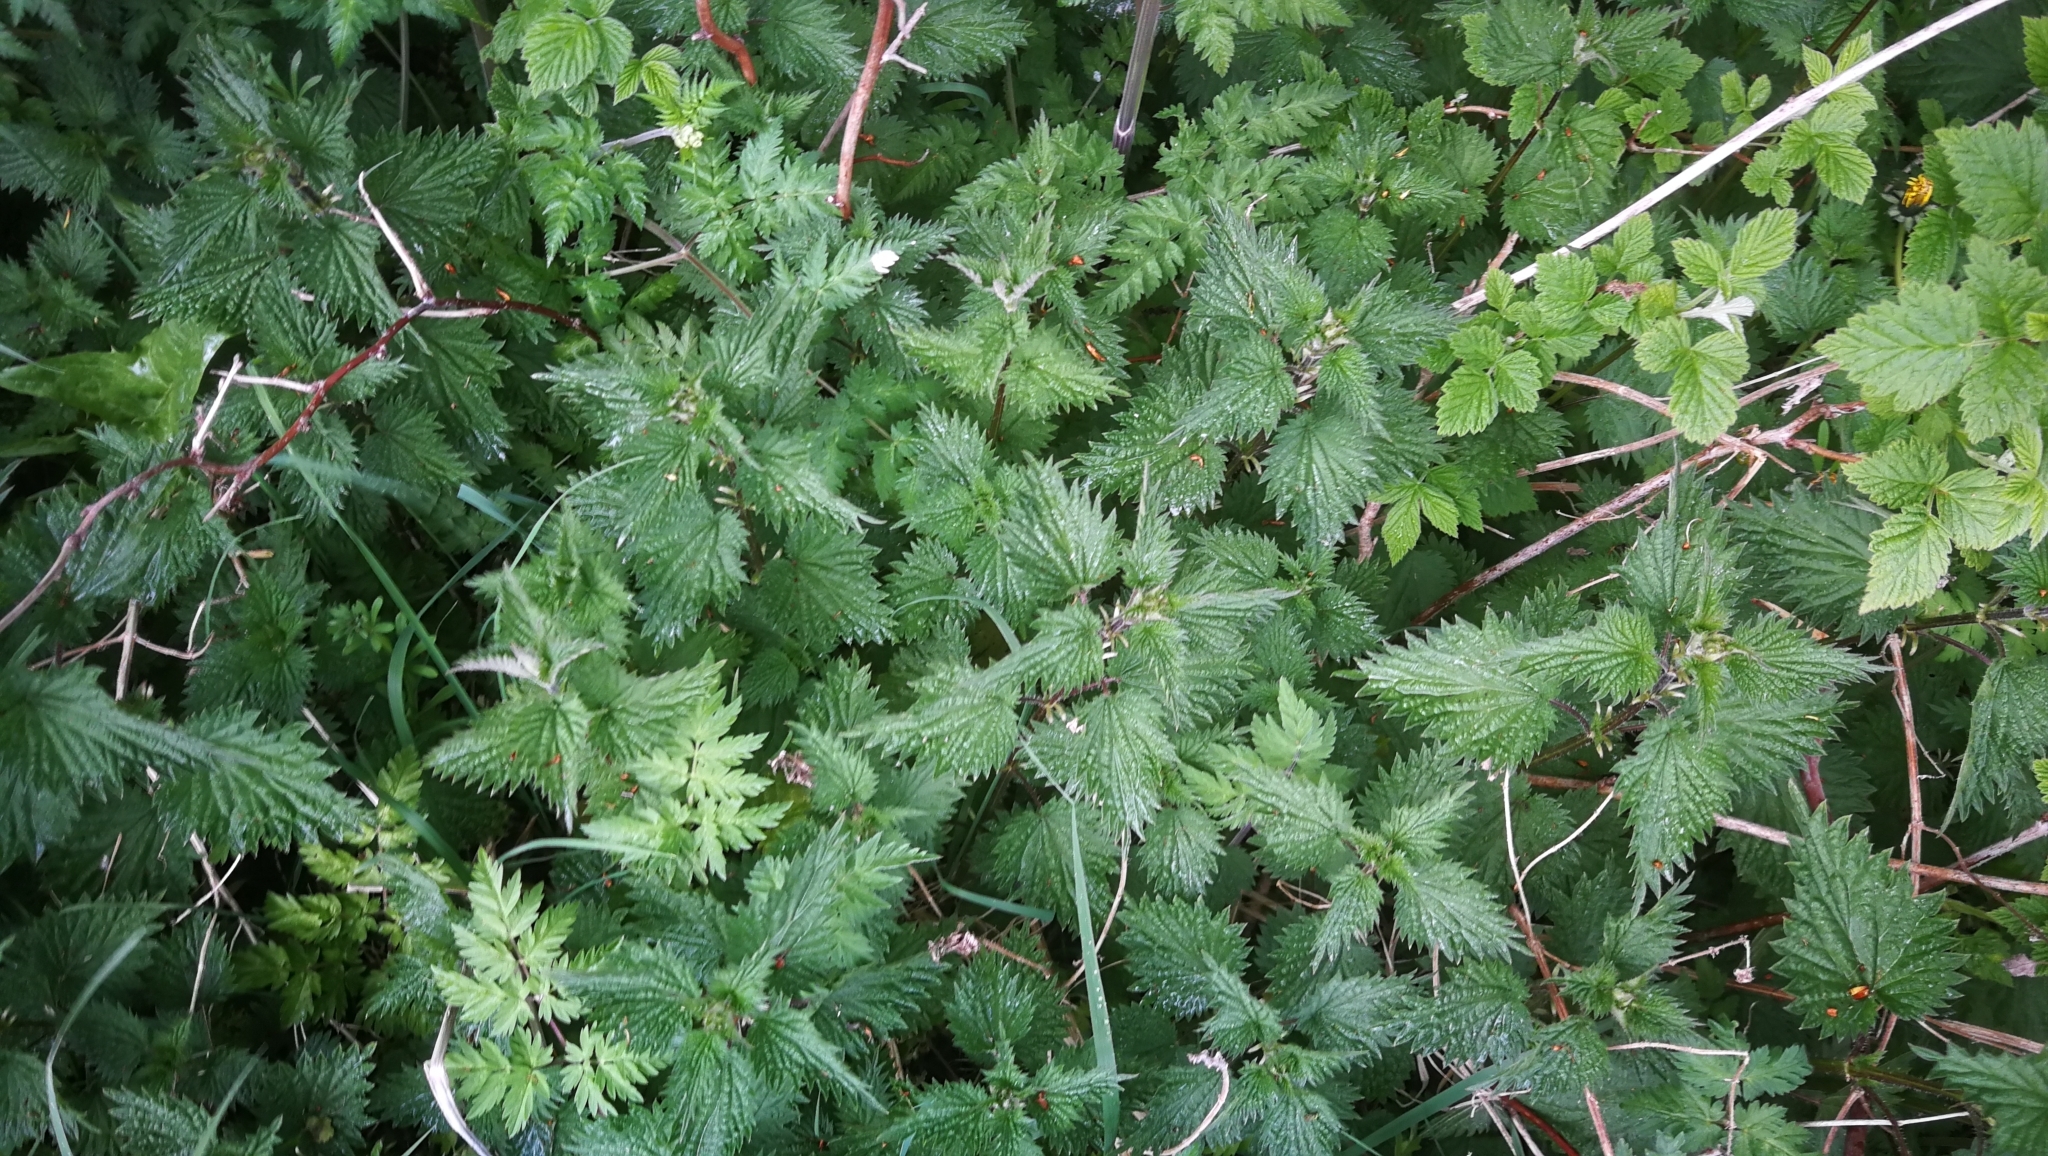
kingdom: Plantae
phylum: Tracheophyta
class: Magnoliopsida
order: Rosales
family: Urticaceae
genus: Urtica
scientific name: Urtica dioica
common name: Common nettle
